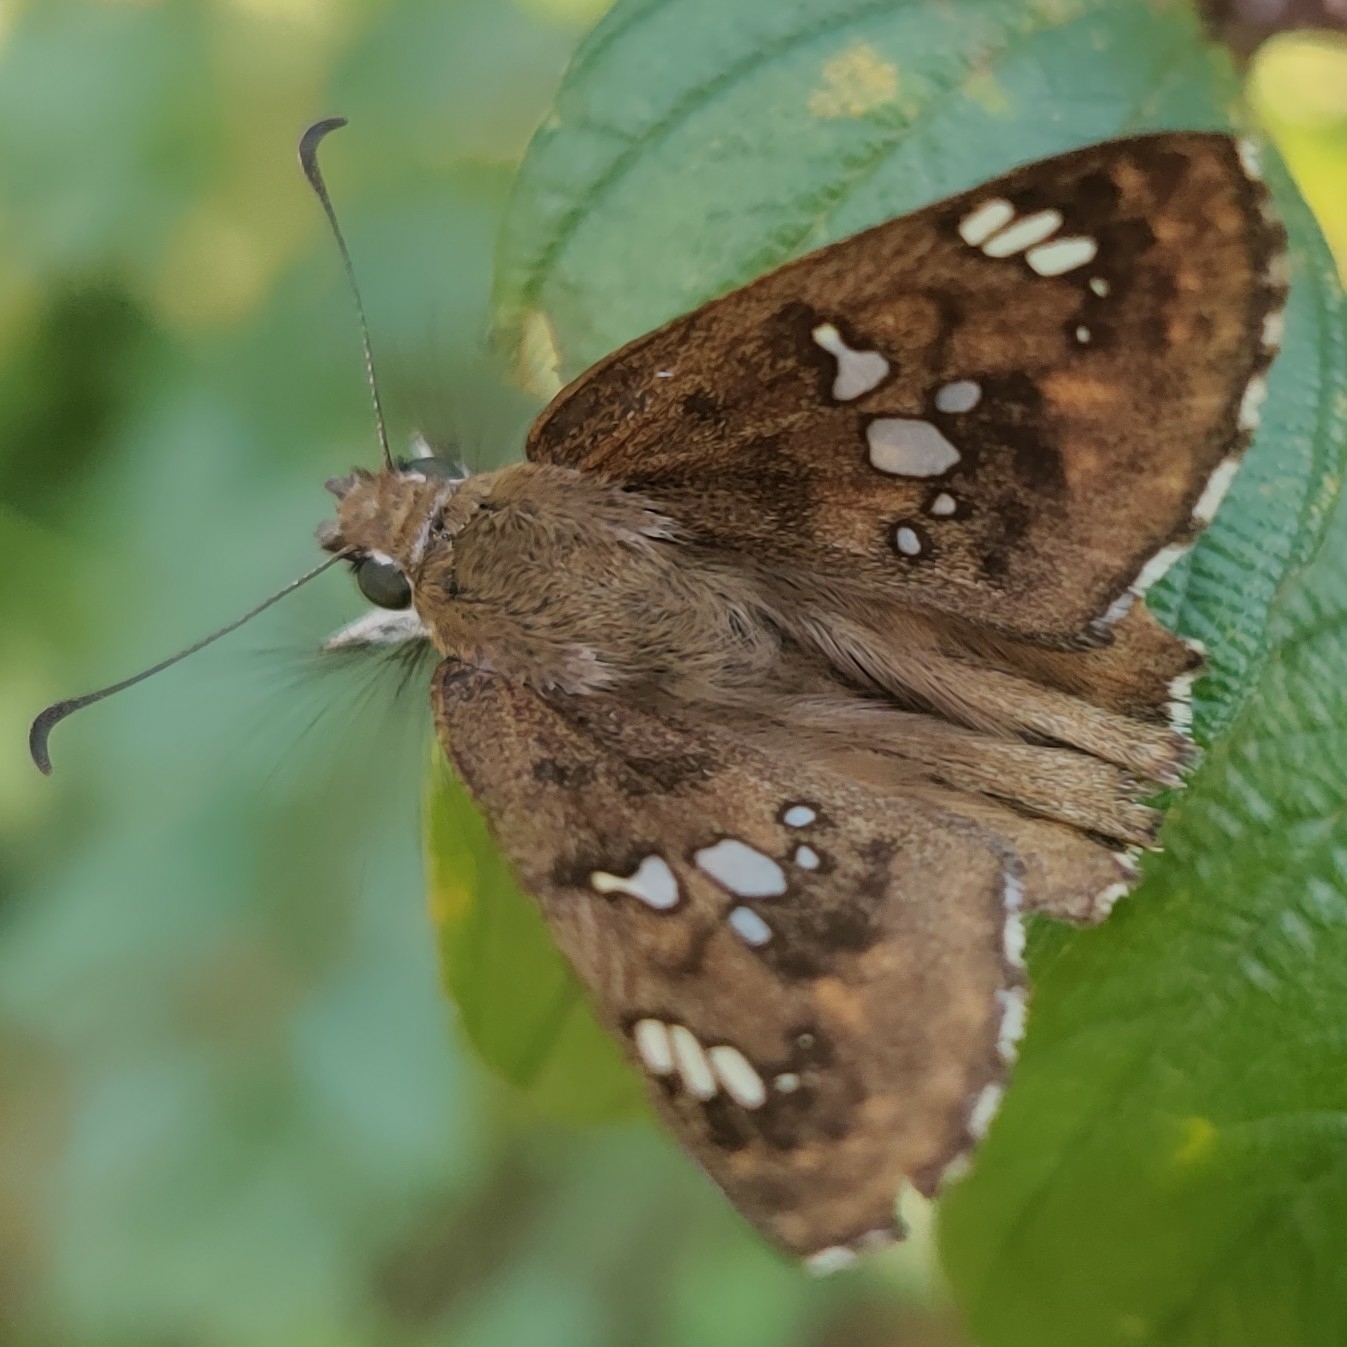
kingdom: Animalia
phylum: Arthropoda
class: Insecta
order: Lepidoptera
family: Hesperiidae
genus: Caprona
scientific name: Caprona ransonnettii
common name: Golden angle
